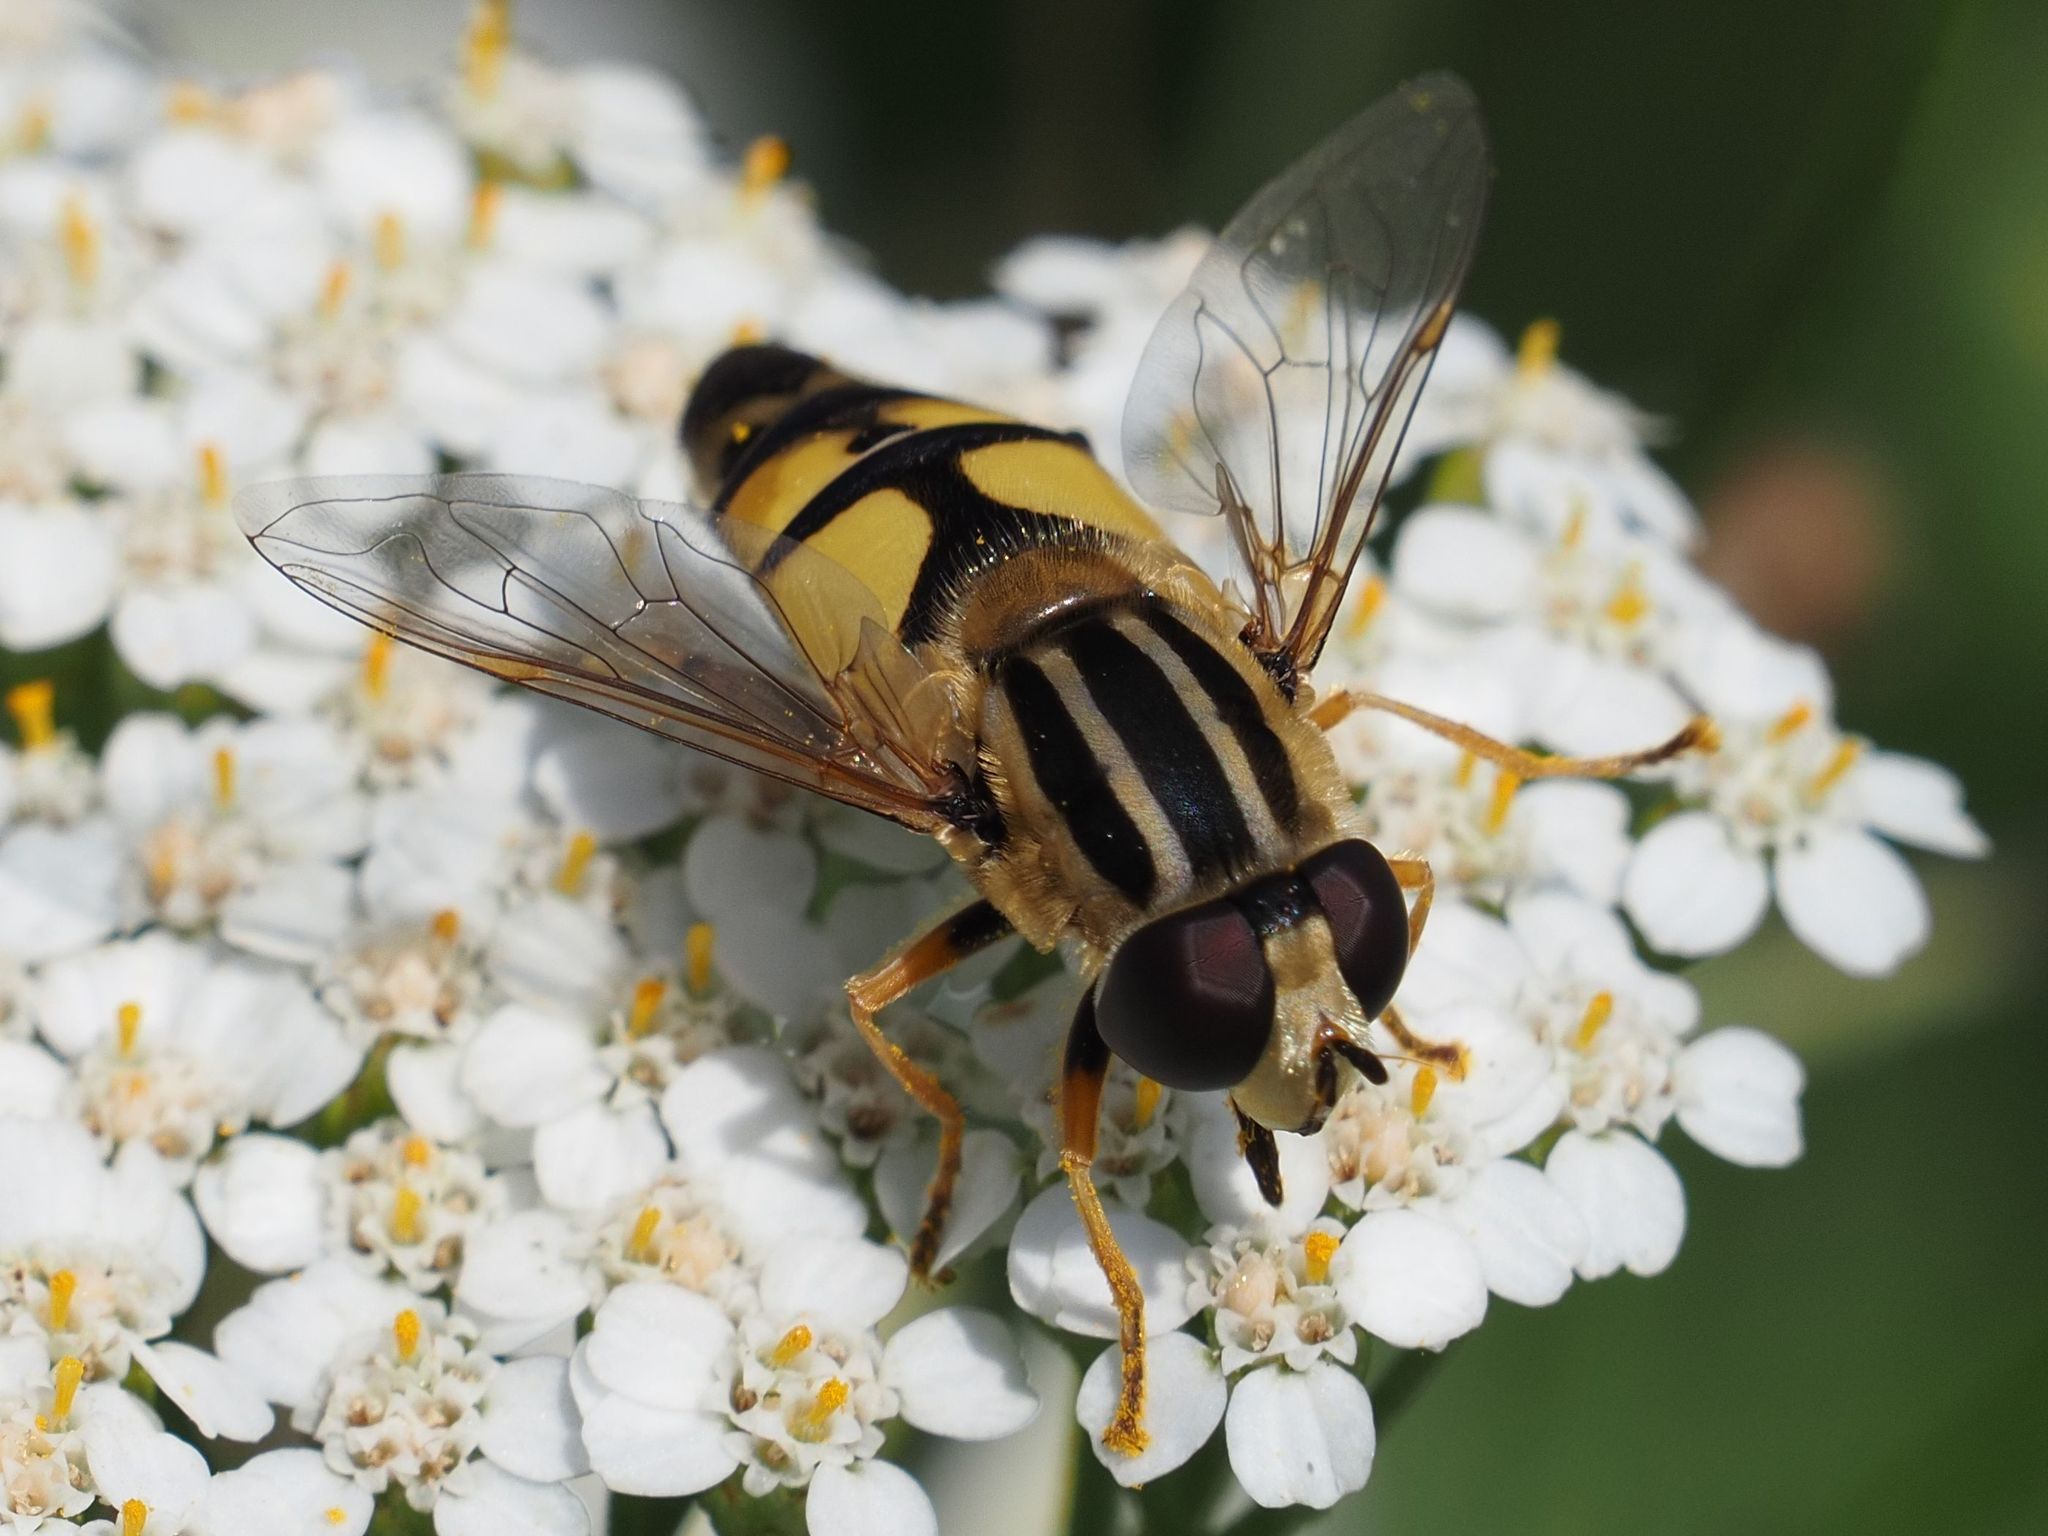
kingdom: Animalia
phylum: Arthropoda
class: Insecta
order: Diptera
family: Syrphidae
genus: Helophilus
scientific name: Helophilus trivittatus
